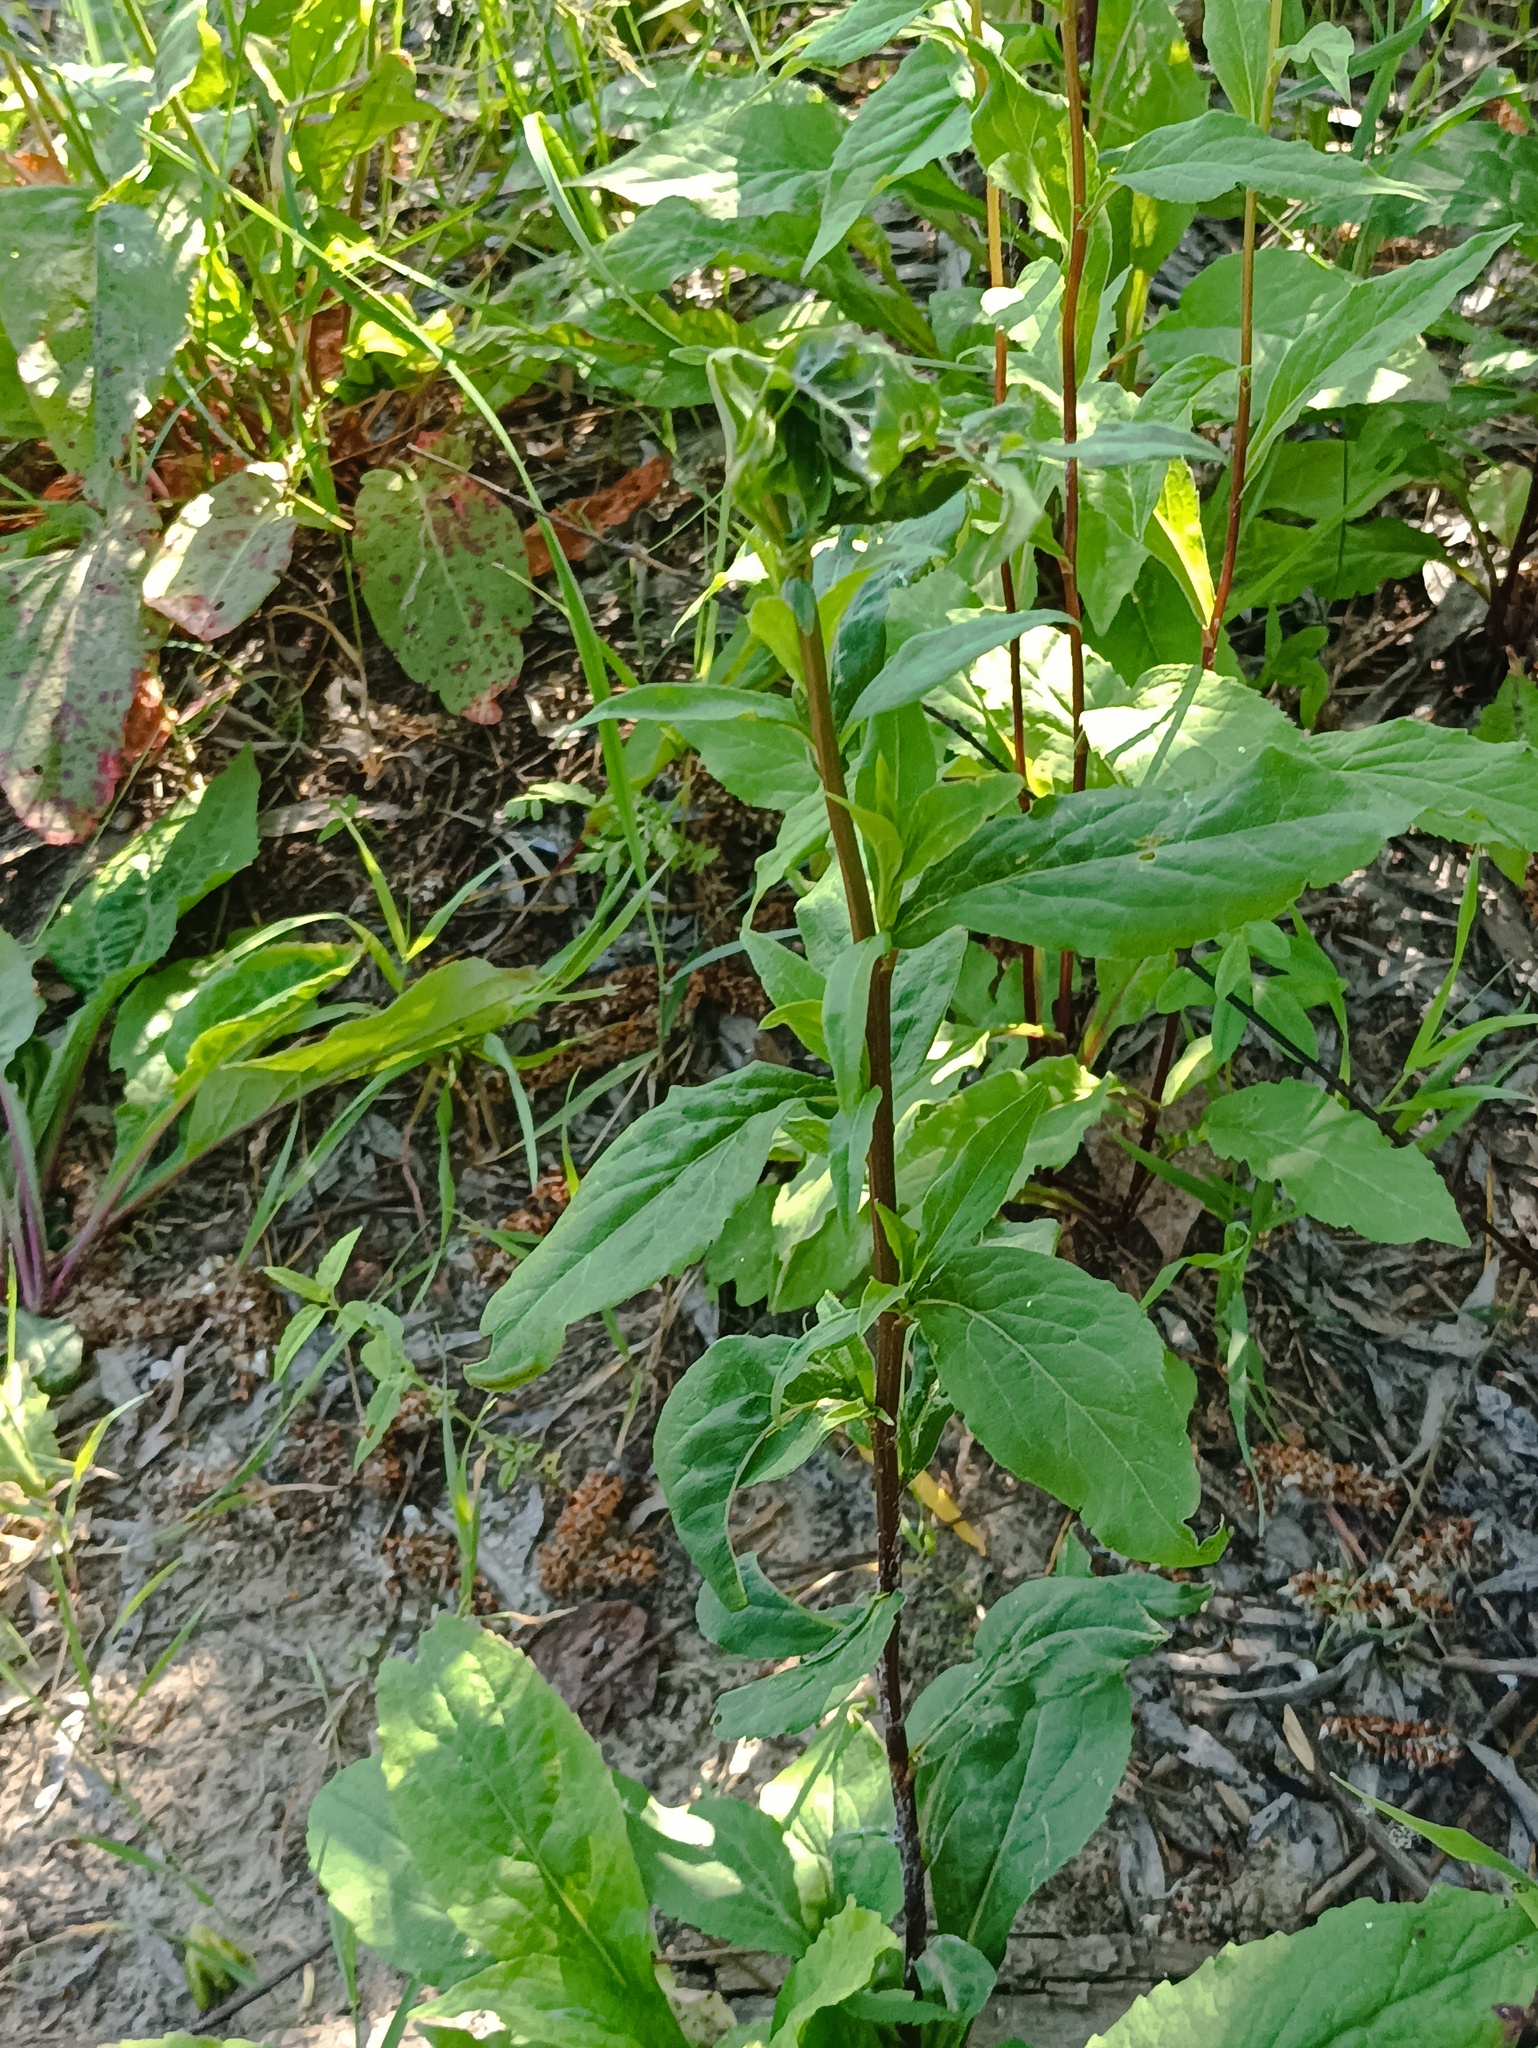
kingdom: Plantae
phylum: Tracheophyta
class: Magnoliopsida
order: Asterales
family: Asteraceae
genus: Solidago
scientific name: Solidago virgaurea
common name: Goldenrod
